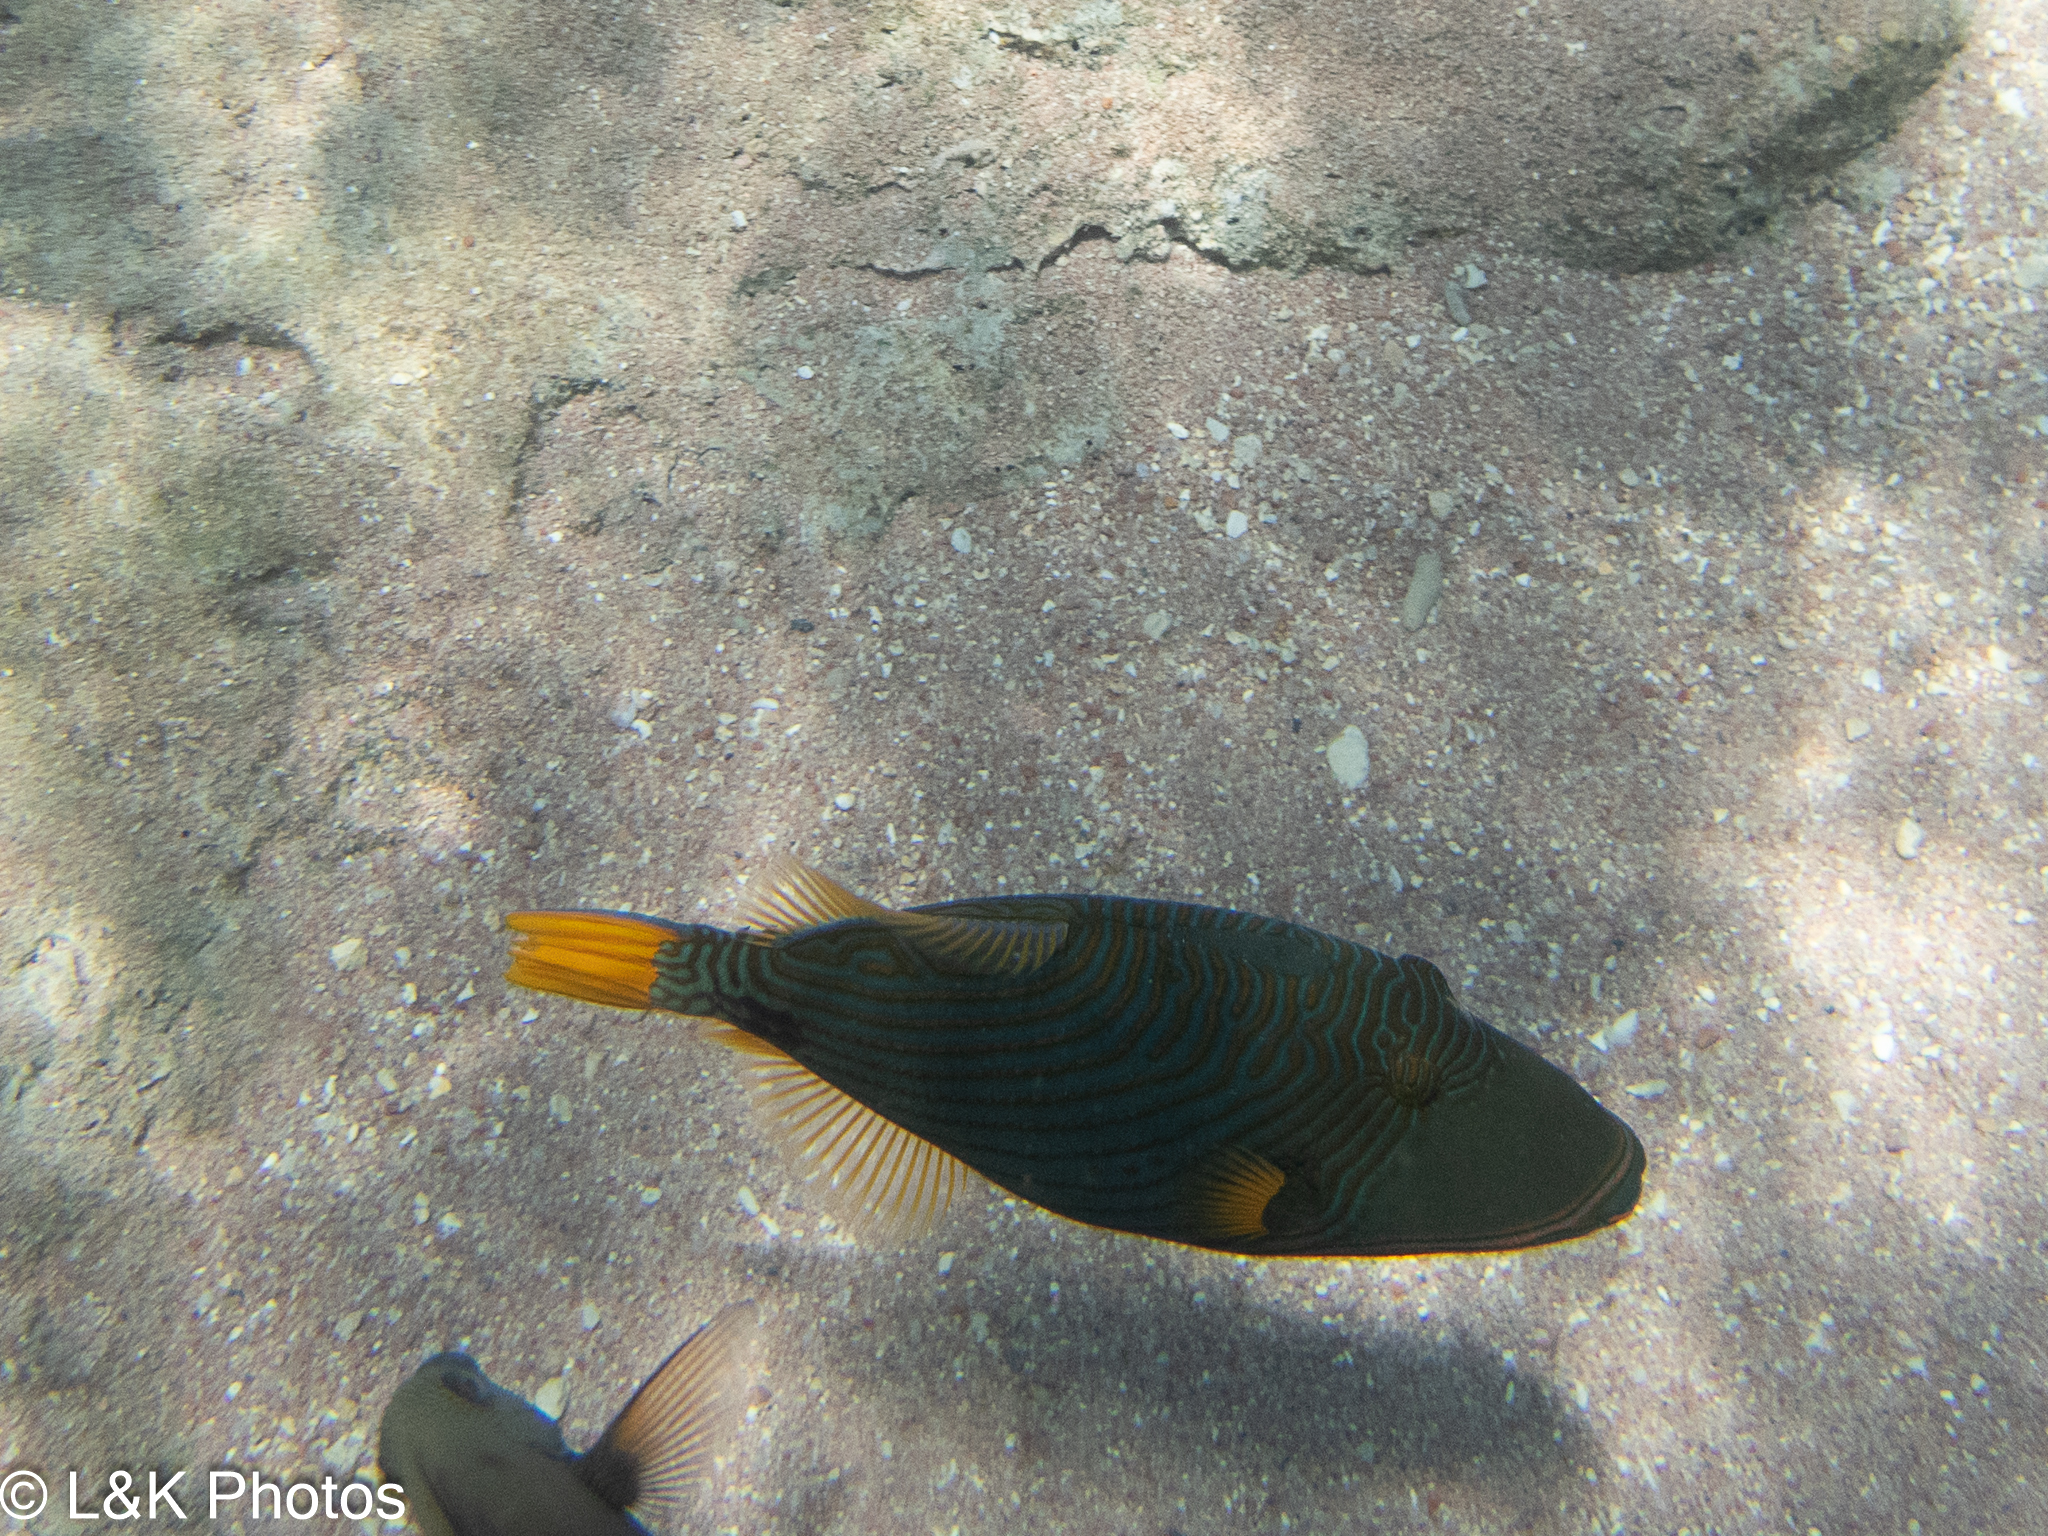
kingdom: Animalia
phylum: Chordata
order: Tetraodontiformes
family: Balistidae
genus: Balistapus
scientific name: Balistapus undulatus
